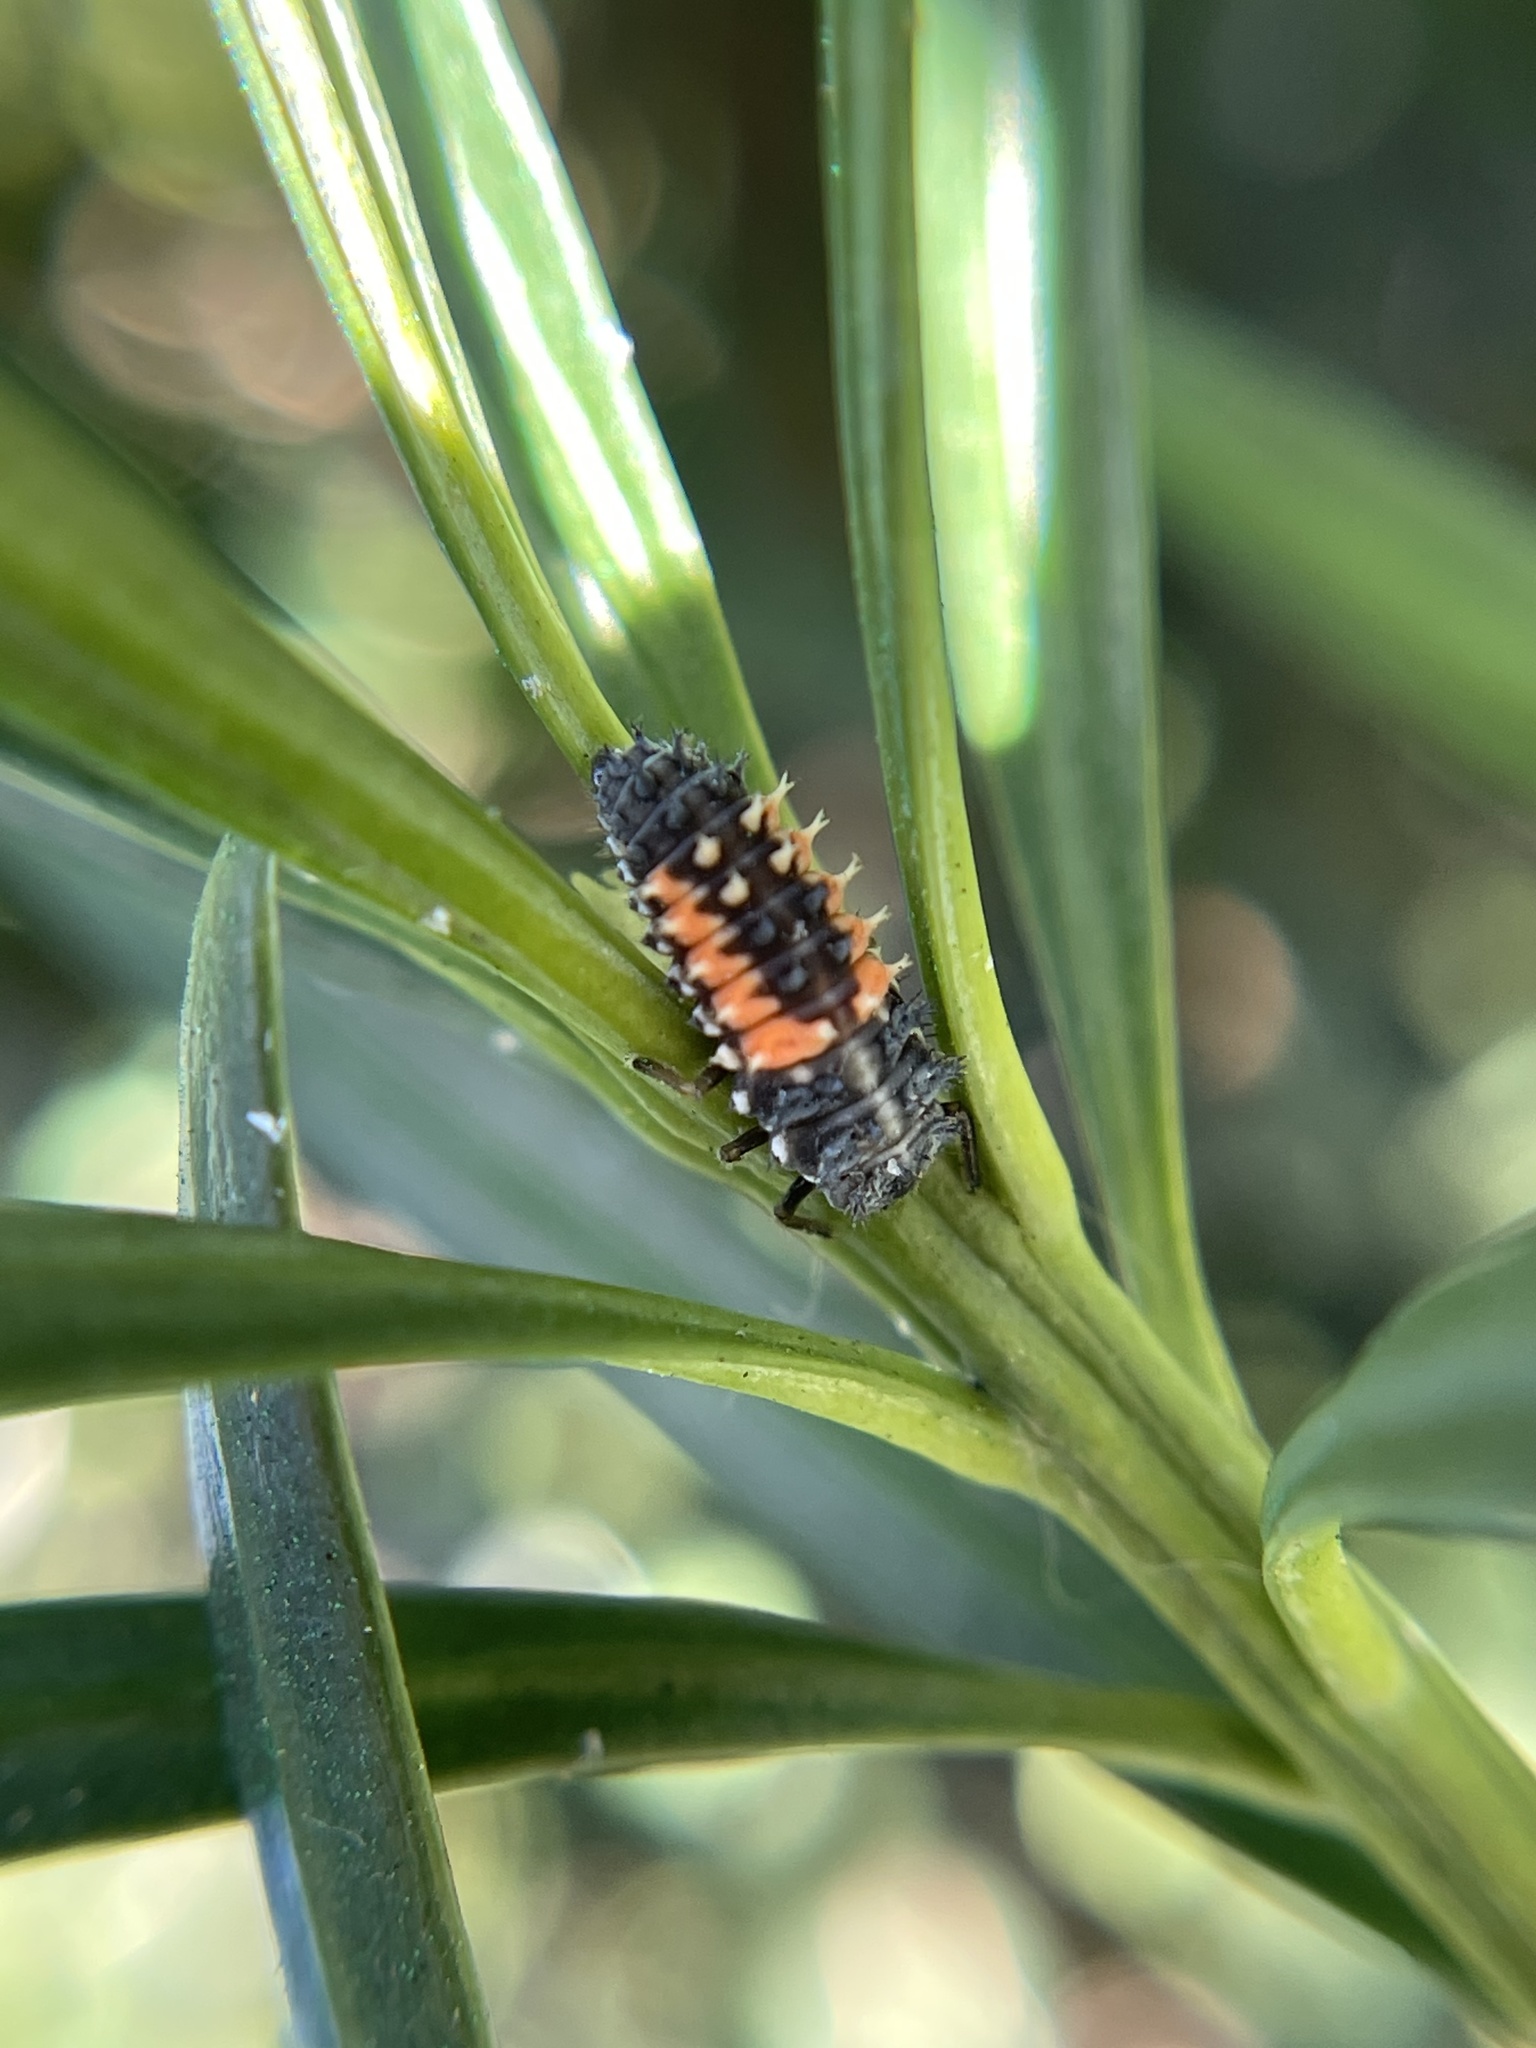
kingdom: Animalia
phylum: Arthropoda
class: Insecta
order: Coleoptera
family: Coccinellidae
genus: Harmonia
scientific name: Harmonia axyridis
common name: Harlequin ladybird
